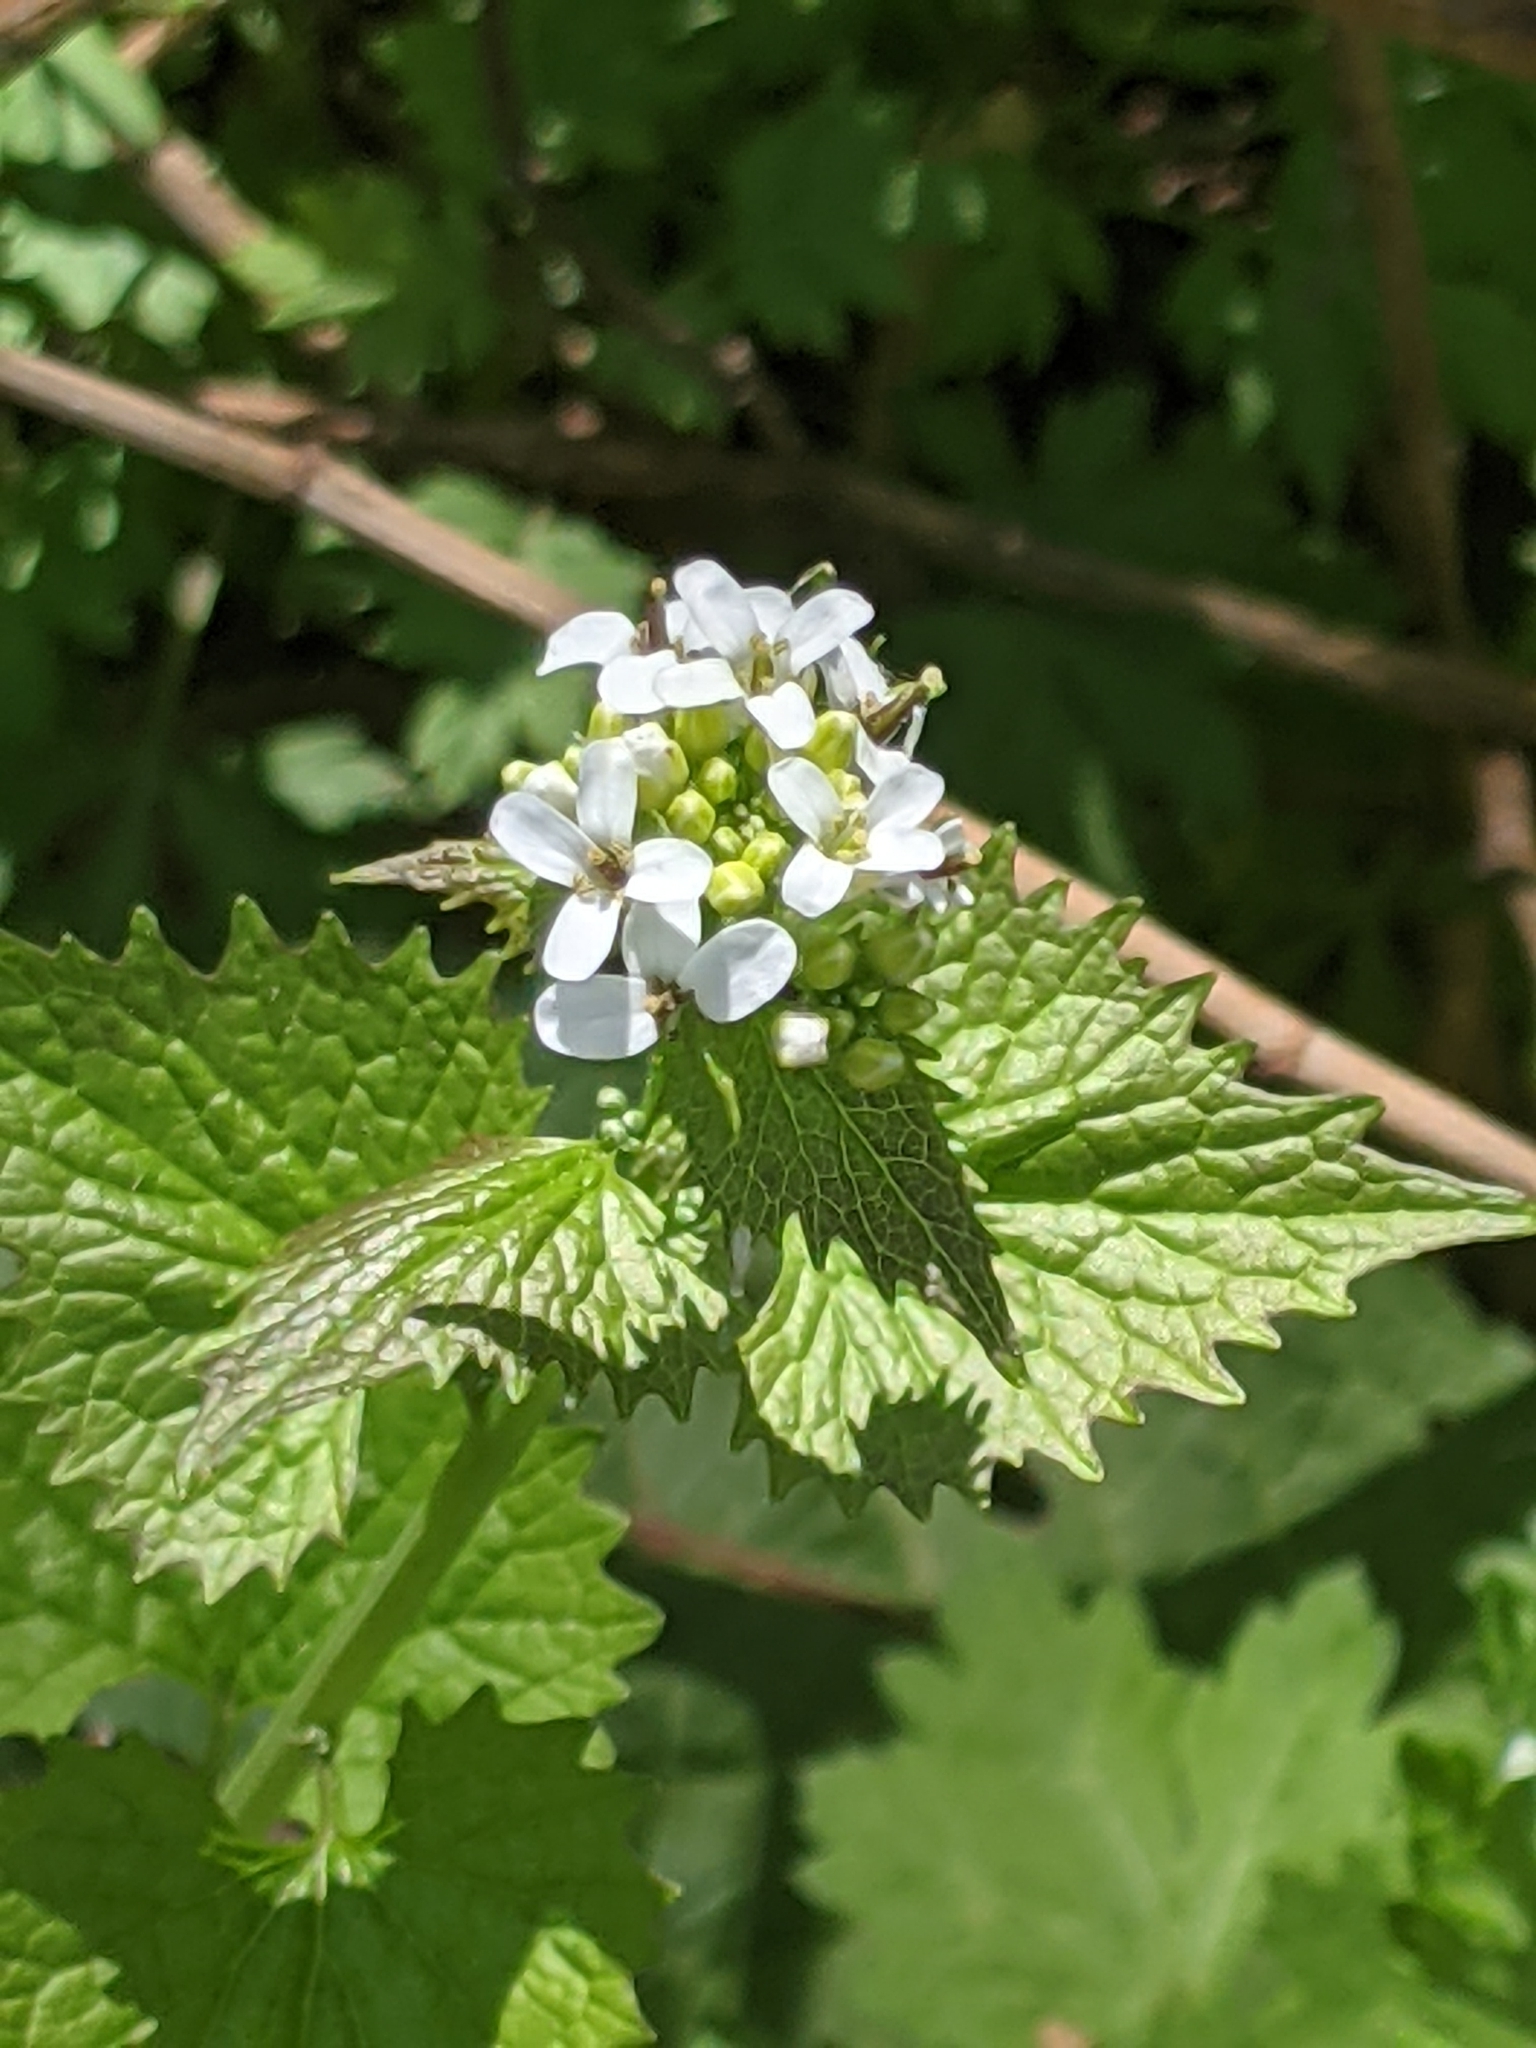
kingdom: Plantae
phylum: Tracheophyta
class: Magnoliopsida
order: Brassicales
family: Brassicaceae
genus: Alliaria
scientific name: Alliaria petiolata
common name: Garlic mustard
